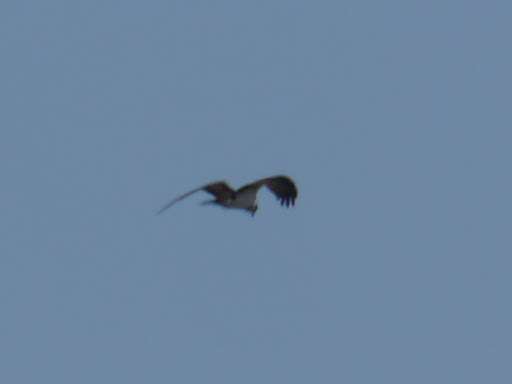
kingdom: Animalia
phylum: Chordata
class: Aves
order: Accipitriformes
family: Pandionidae
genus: Pandion
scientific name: Pandion haliaetus
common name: Osprey
